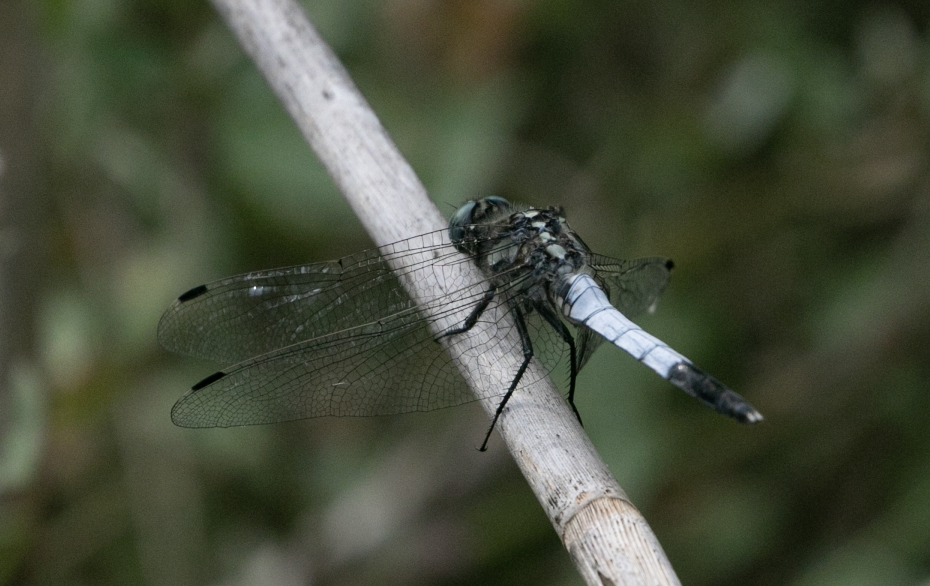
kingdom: Animalia
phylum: Arthropoda
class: Insecta
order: Odonata
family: Libellulidae
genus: Orthetrum
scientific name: Orthetrum albistylum
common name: White-tailed skimmer
